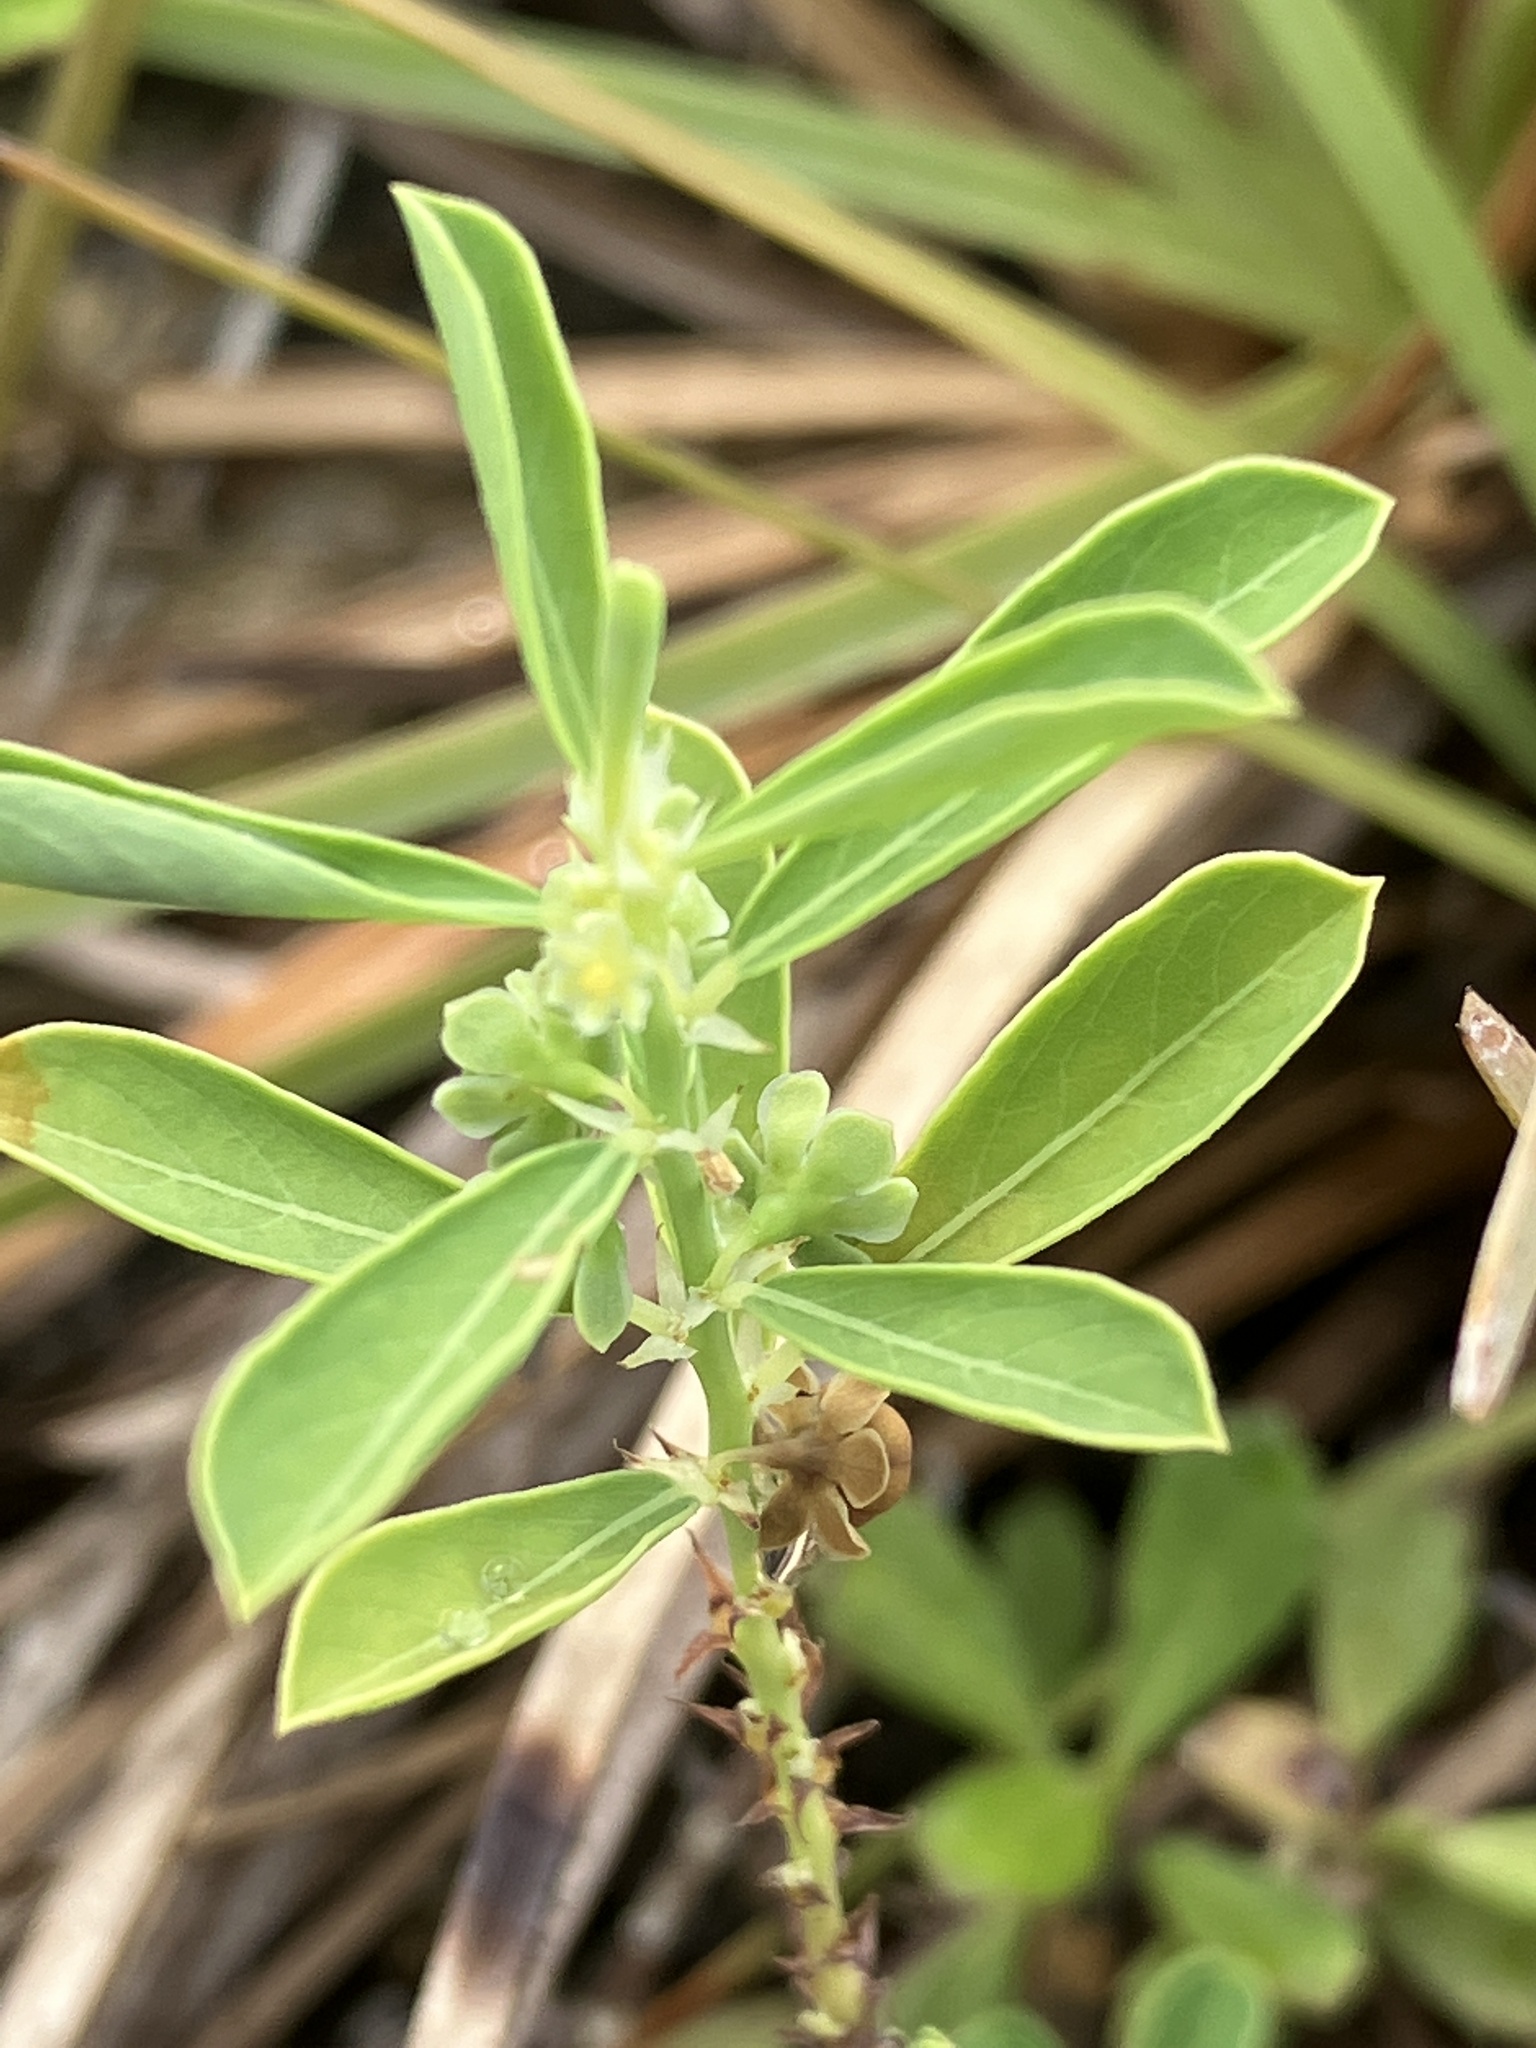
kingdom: Plantae
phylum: Tracheophyta
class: Magnoliopsida
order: Malpighiales
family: Phyllanthaceae
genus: Phyllanthus
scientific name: Phyllanthus polygonoides
